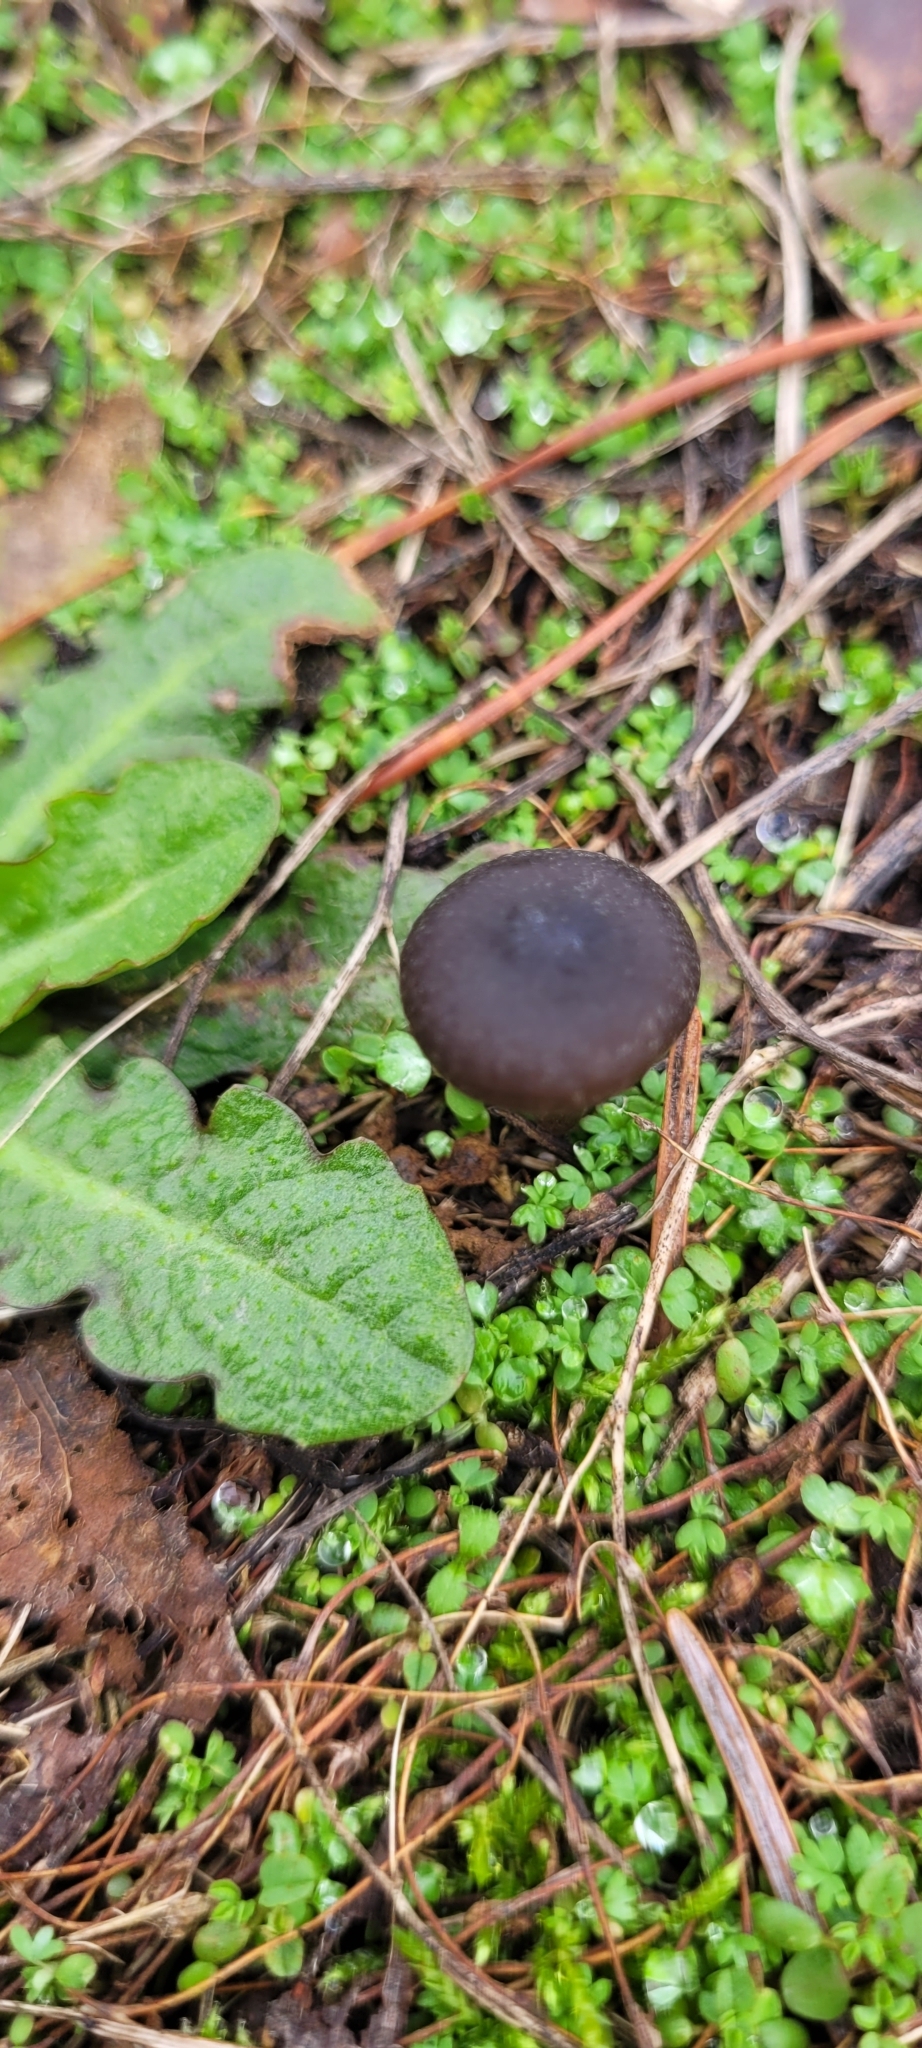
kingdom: Fungi
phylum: Basidiomycota
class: Agaricomycetes
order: Agaricales
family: Entolomataceae
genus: Entoloma
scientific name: Entoloma sericeum
